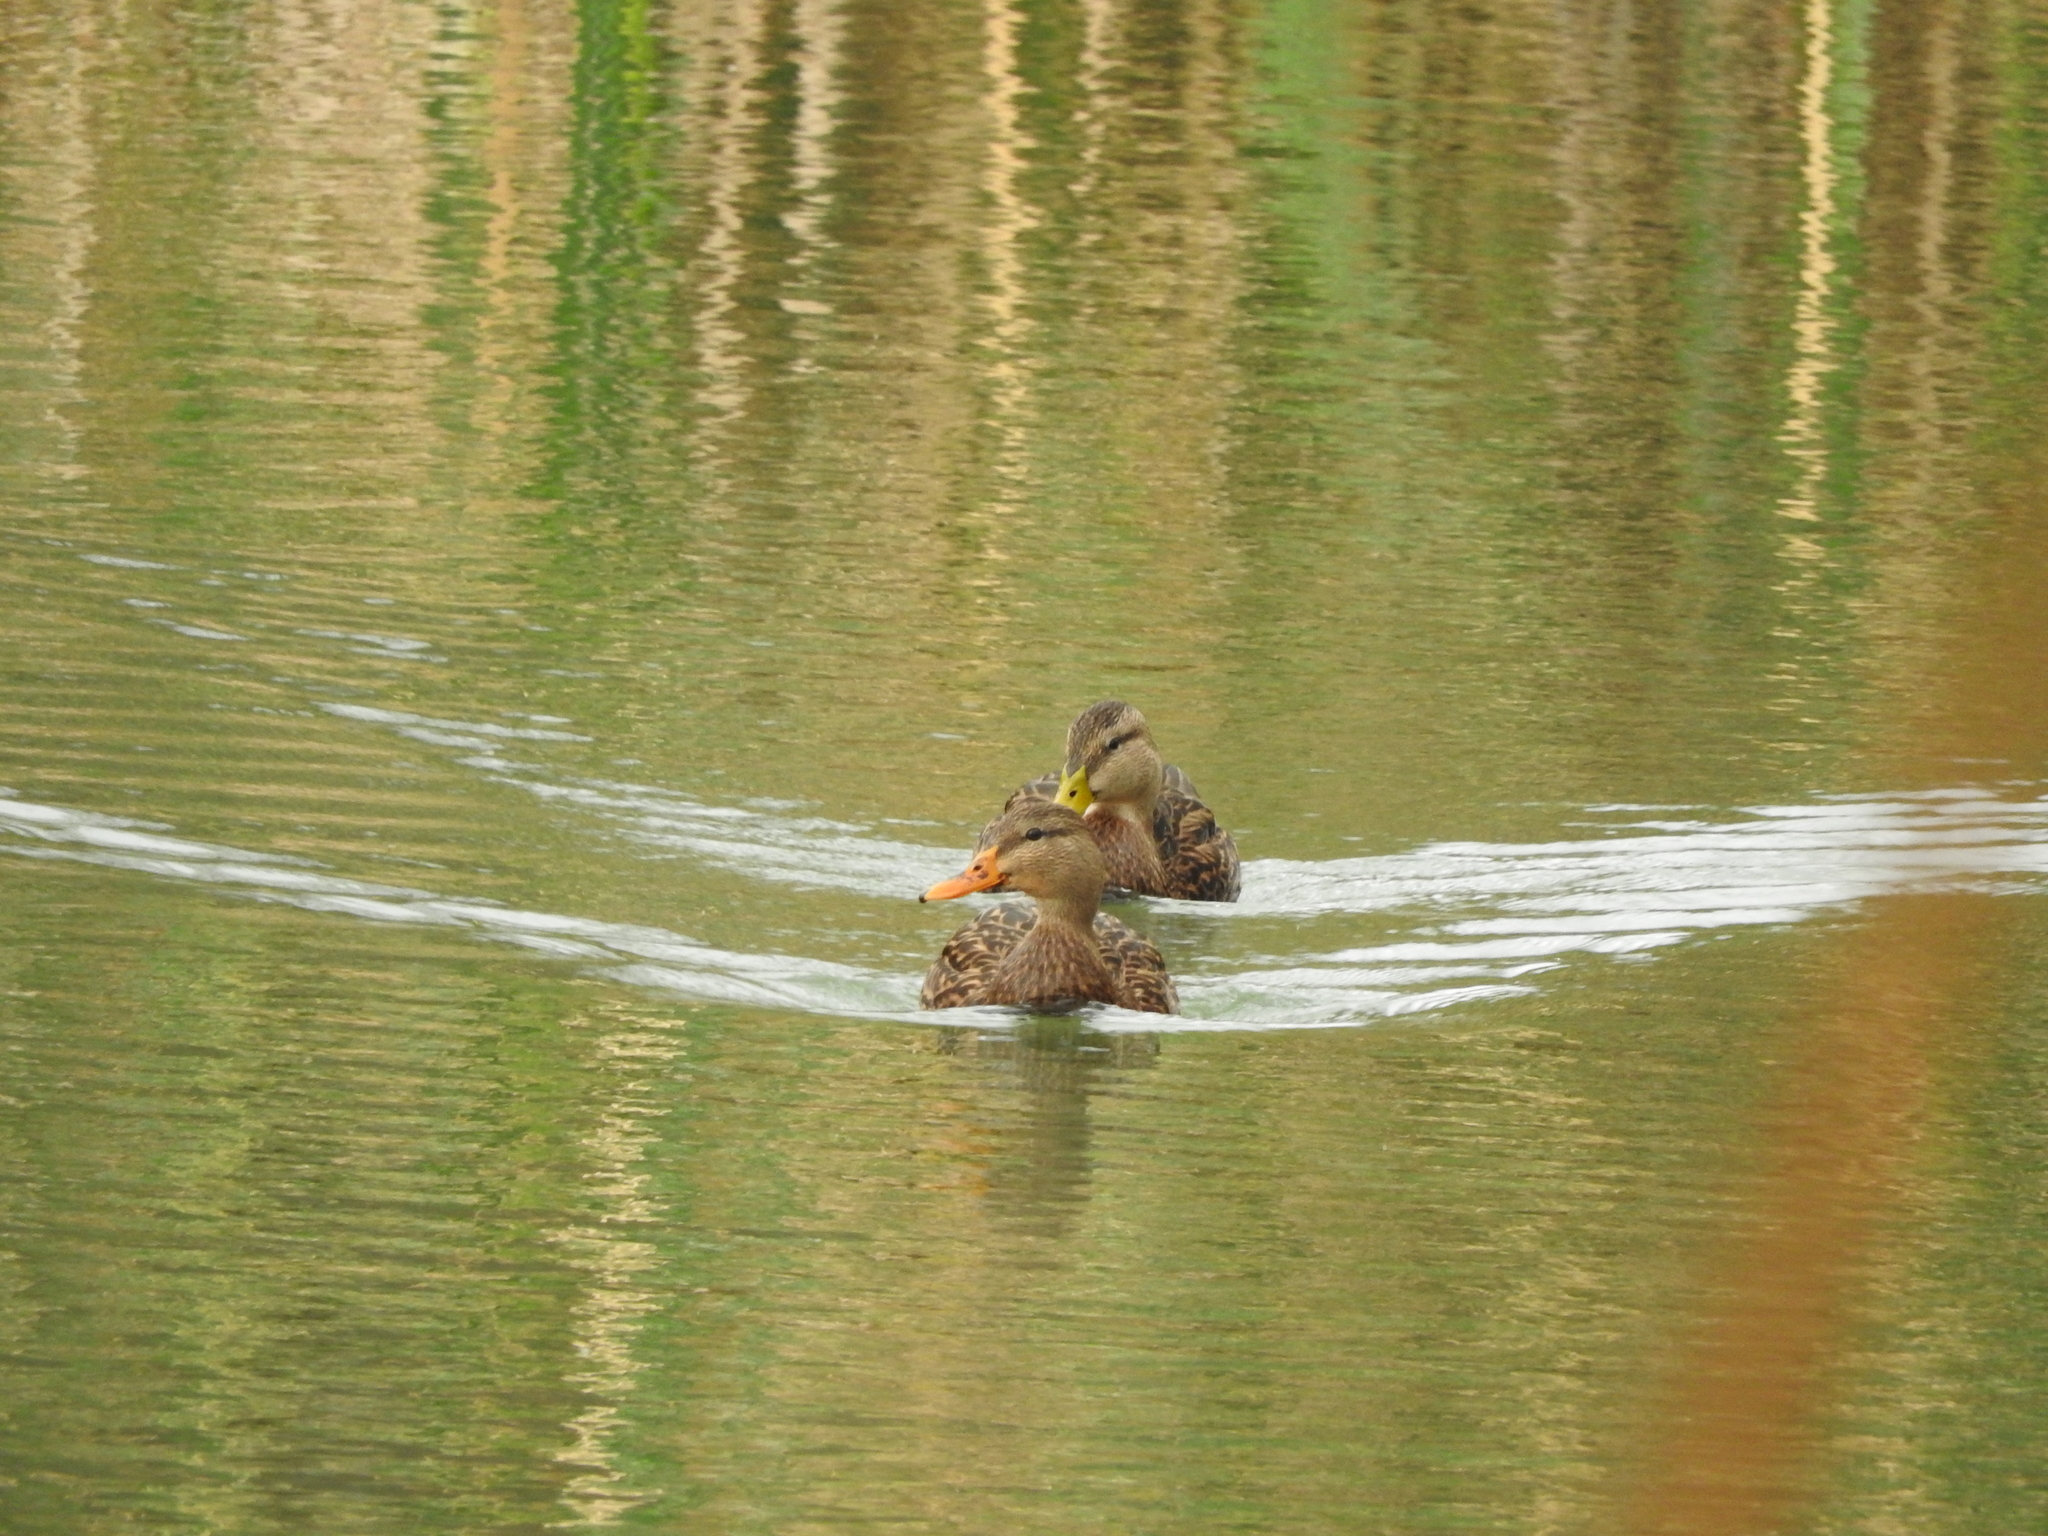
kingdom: Animalia
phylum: Chordata
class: Aves
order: Anseriformes
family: Anatidae
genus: Anas
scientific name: Anas diazi
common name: Mexican duck
